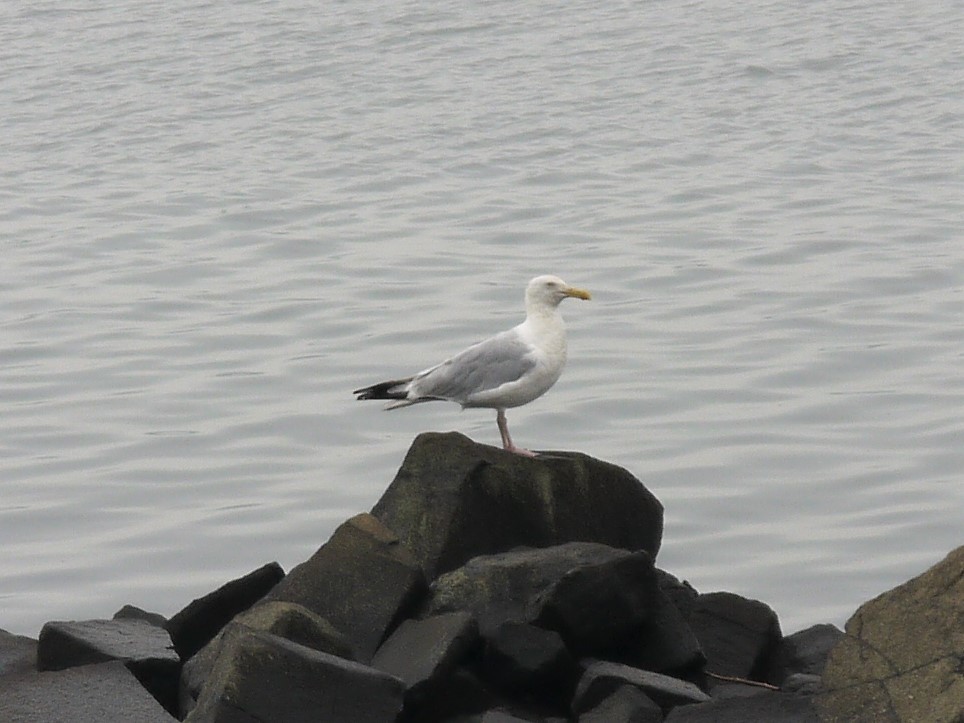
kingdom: Animalia
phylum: Chordata
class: Aves
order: Charadriiformes
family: Laridae
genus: Larus
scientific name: Larus argentatus
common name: Herring gull
